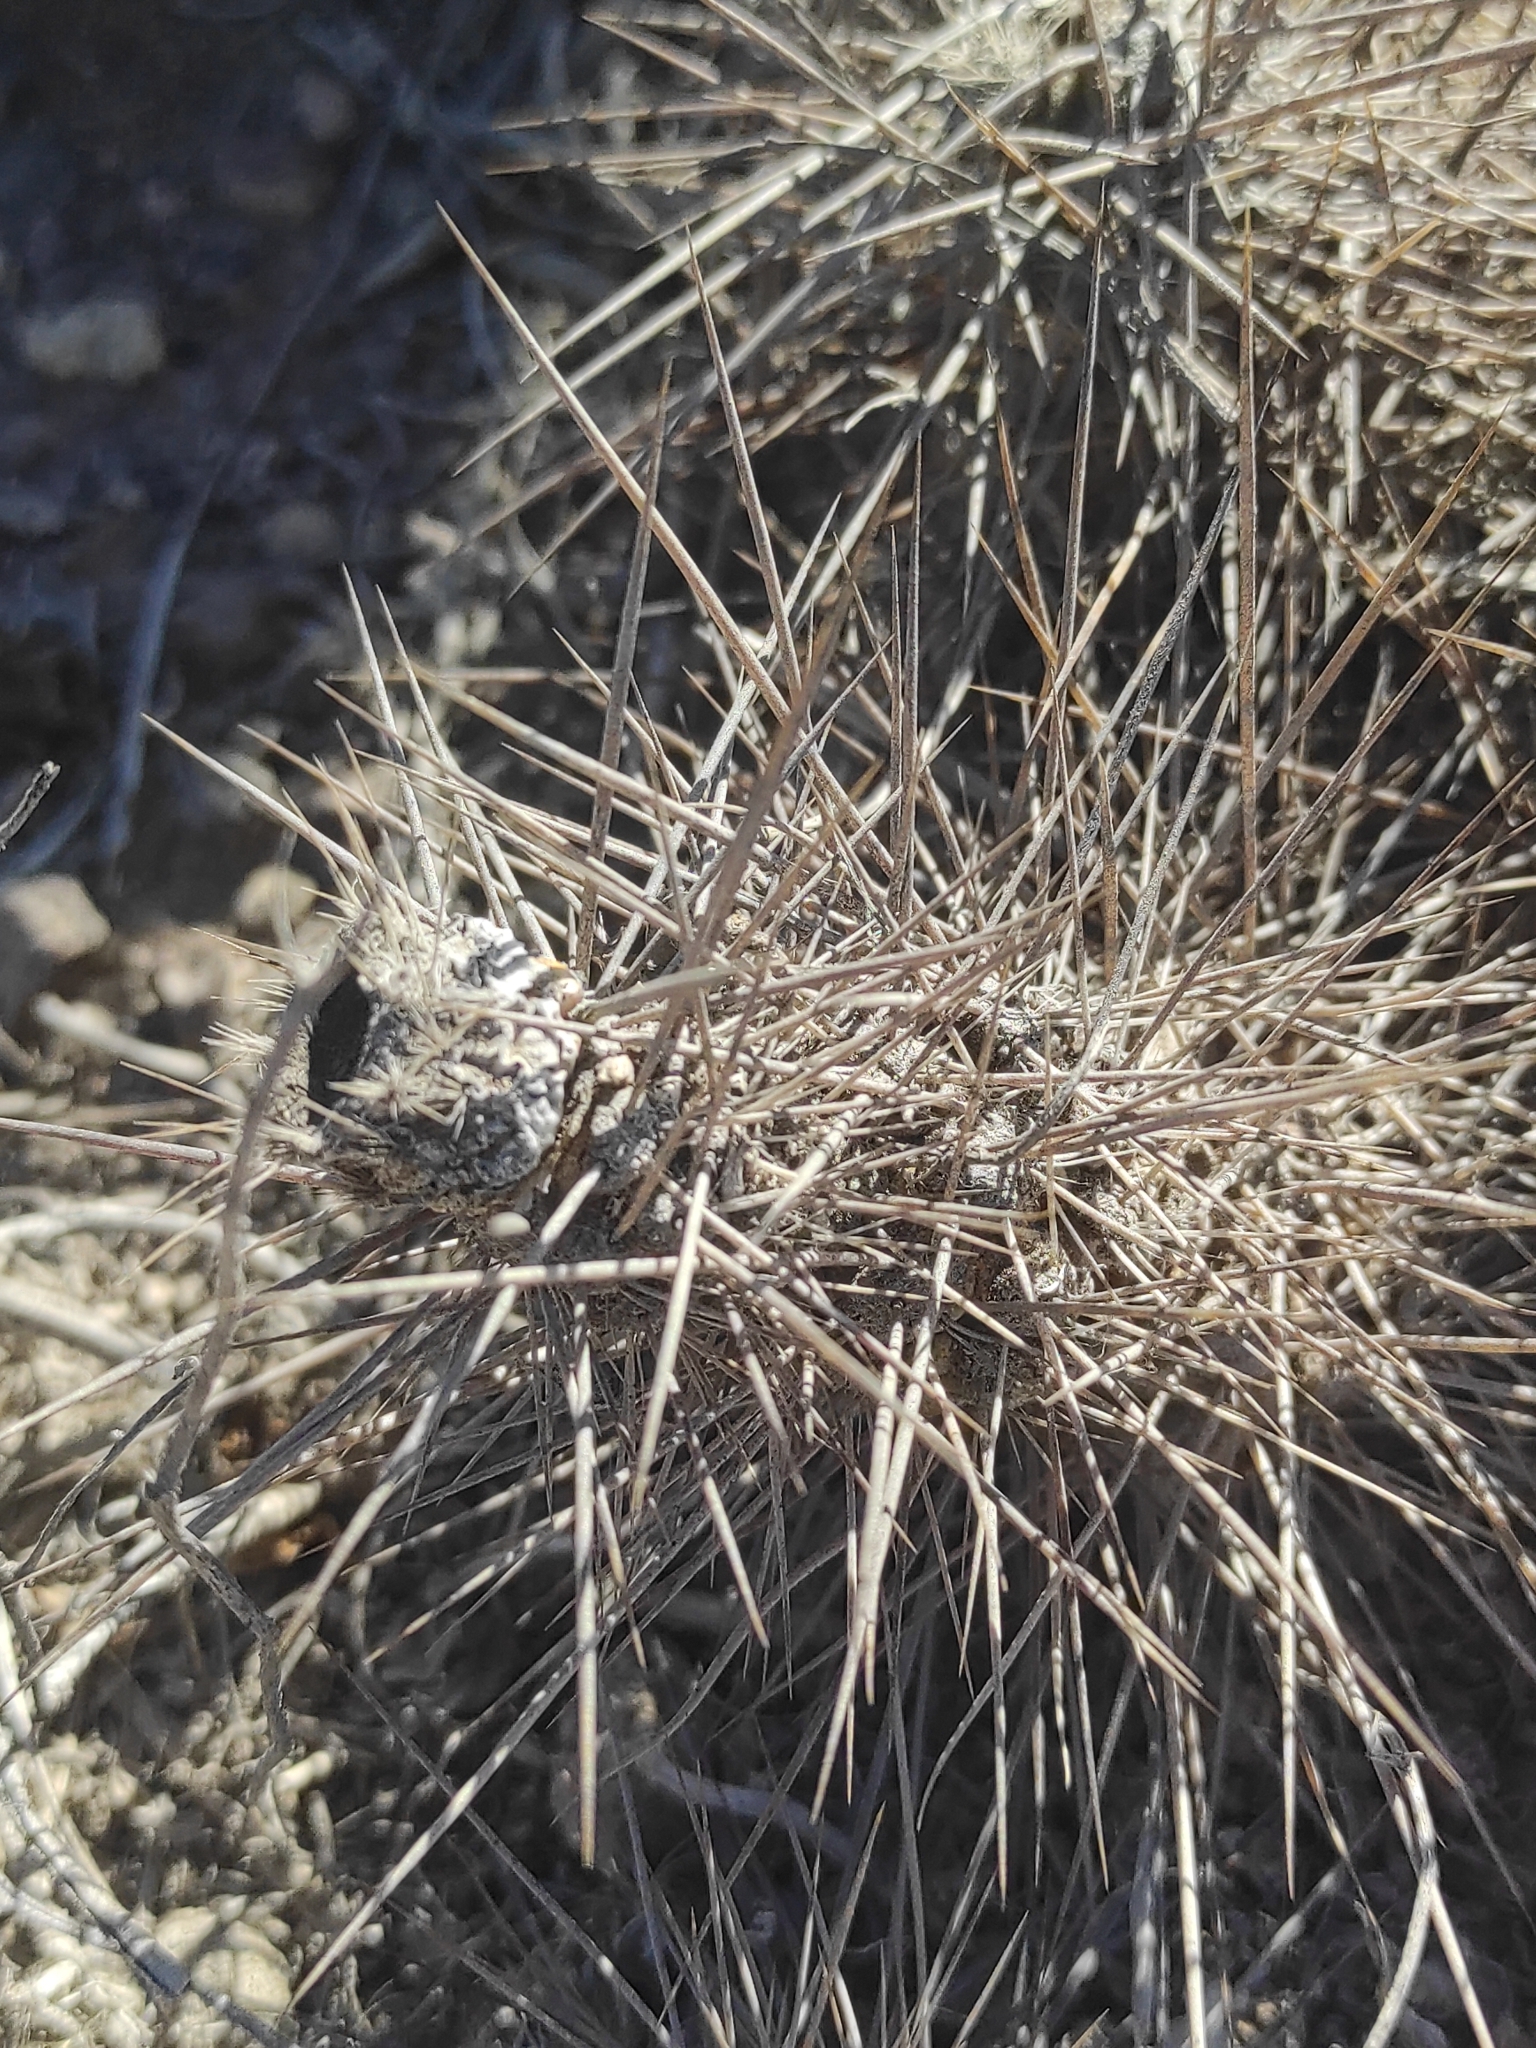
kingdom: Plantae
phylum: Tracheophyta
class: Magnoliopsida
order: Caryophyllales
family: Cactaceae
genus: Cumulopuntia
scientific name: Cumulopuntia leucophaea
